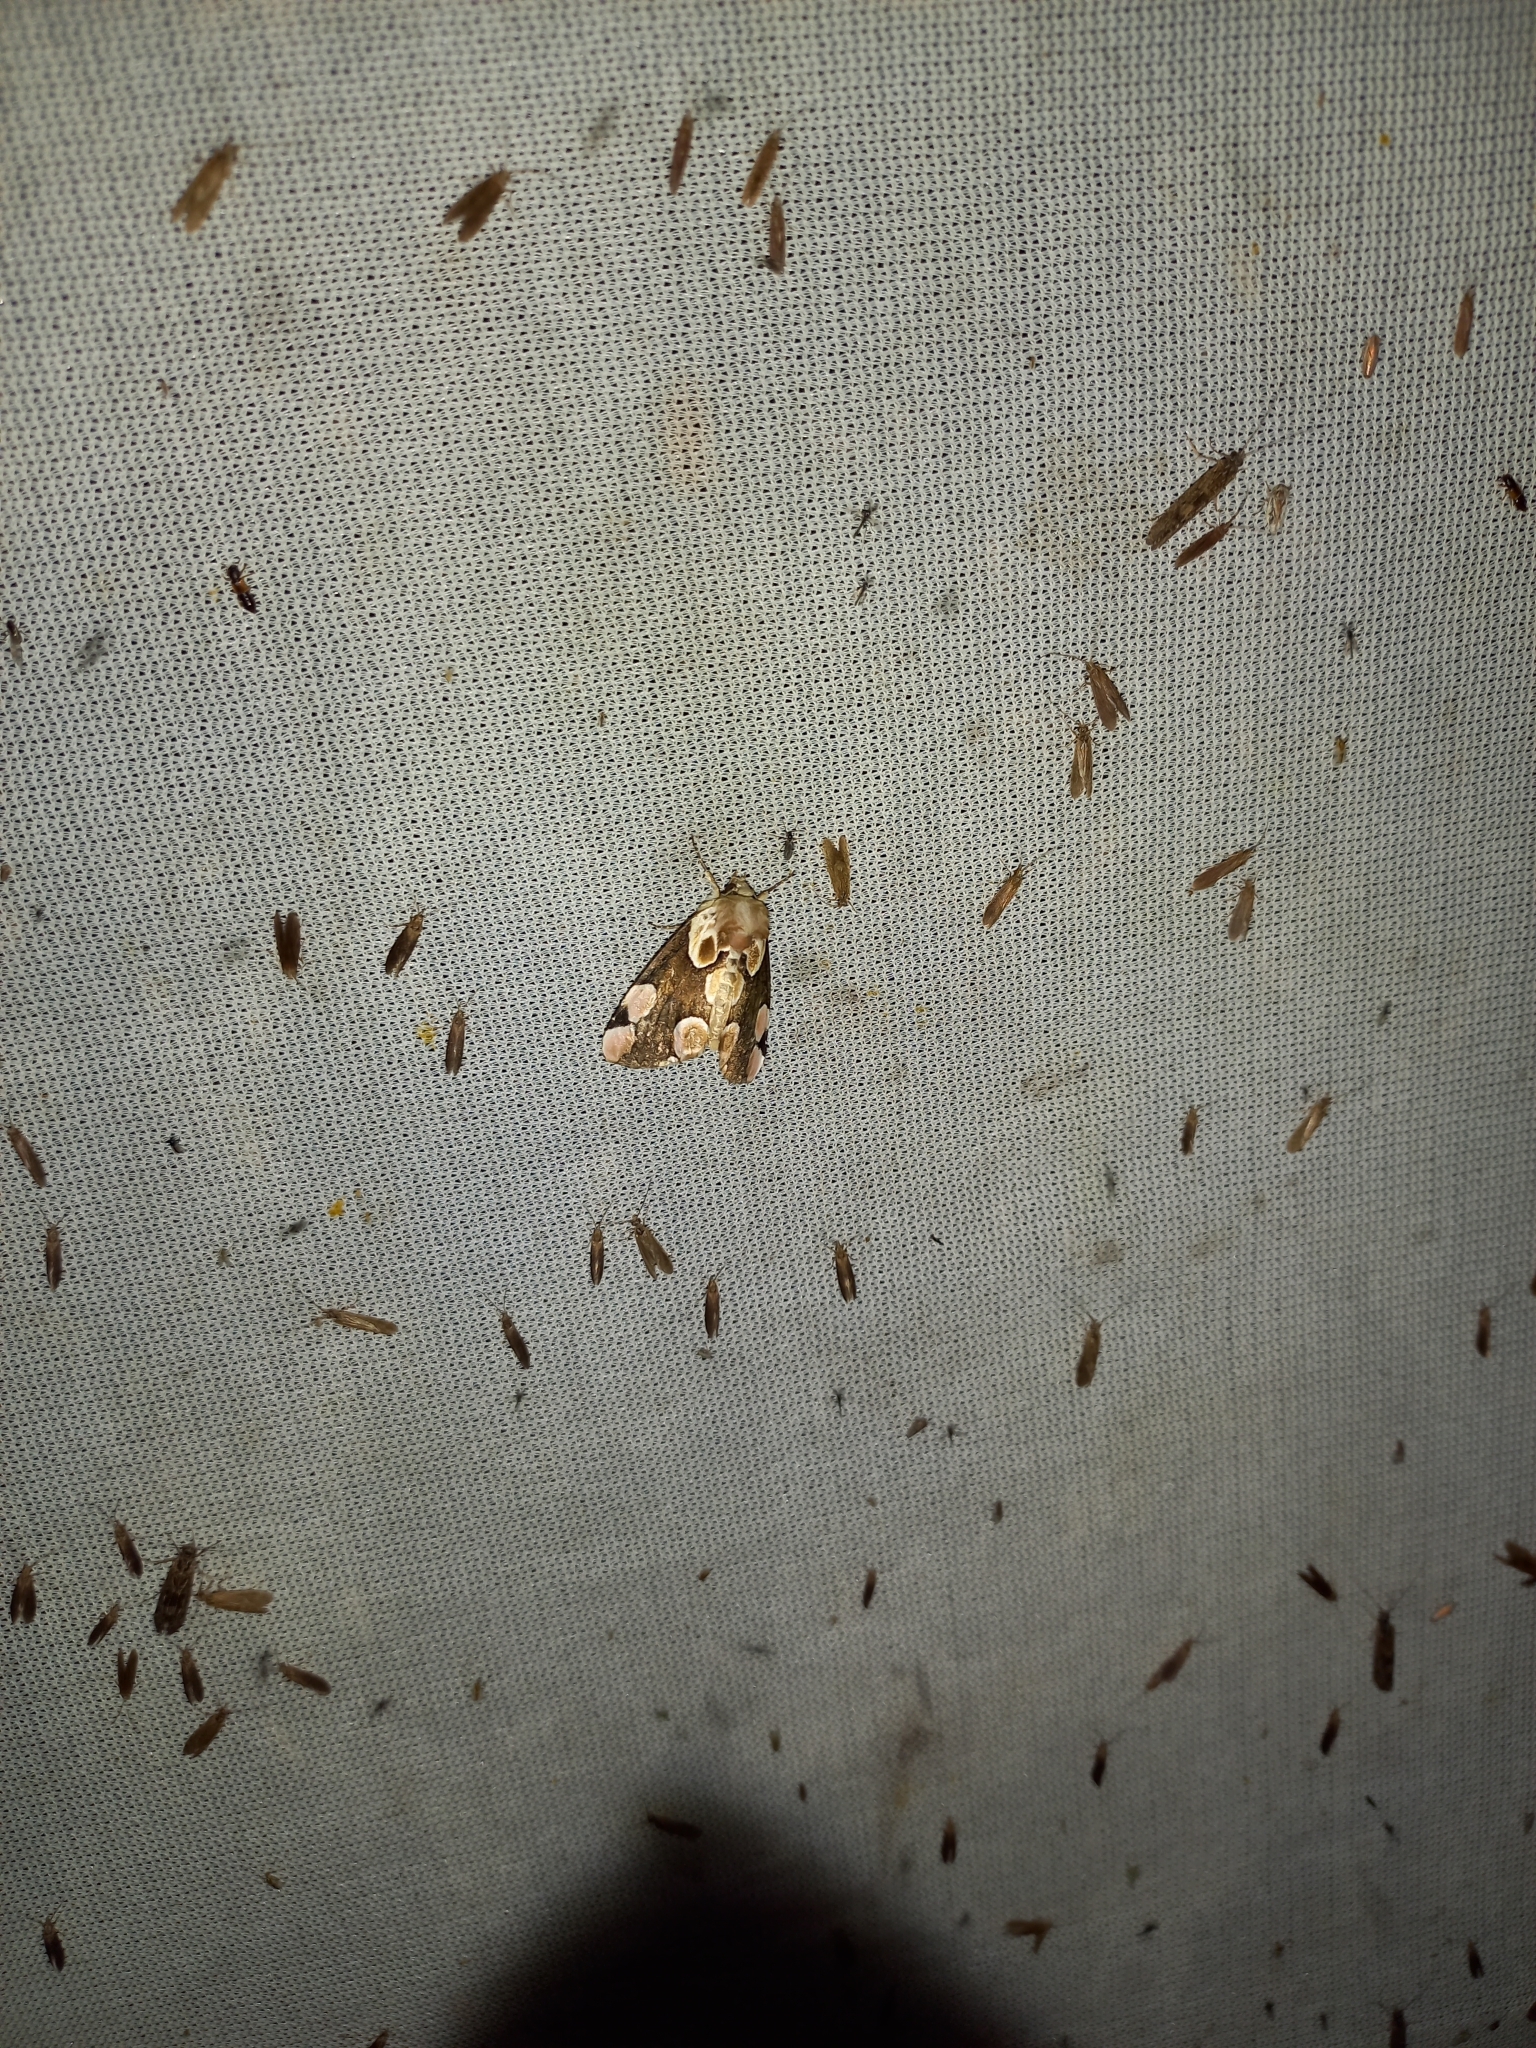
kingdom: Animalia
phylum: Arthropoda
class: Insecta
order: Lepidoptera
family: Drepanidae
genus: Thyatira
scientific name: Thyatira batis
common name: Peach blossom
